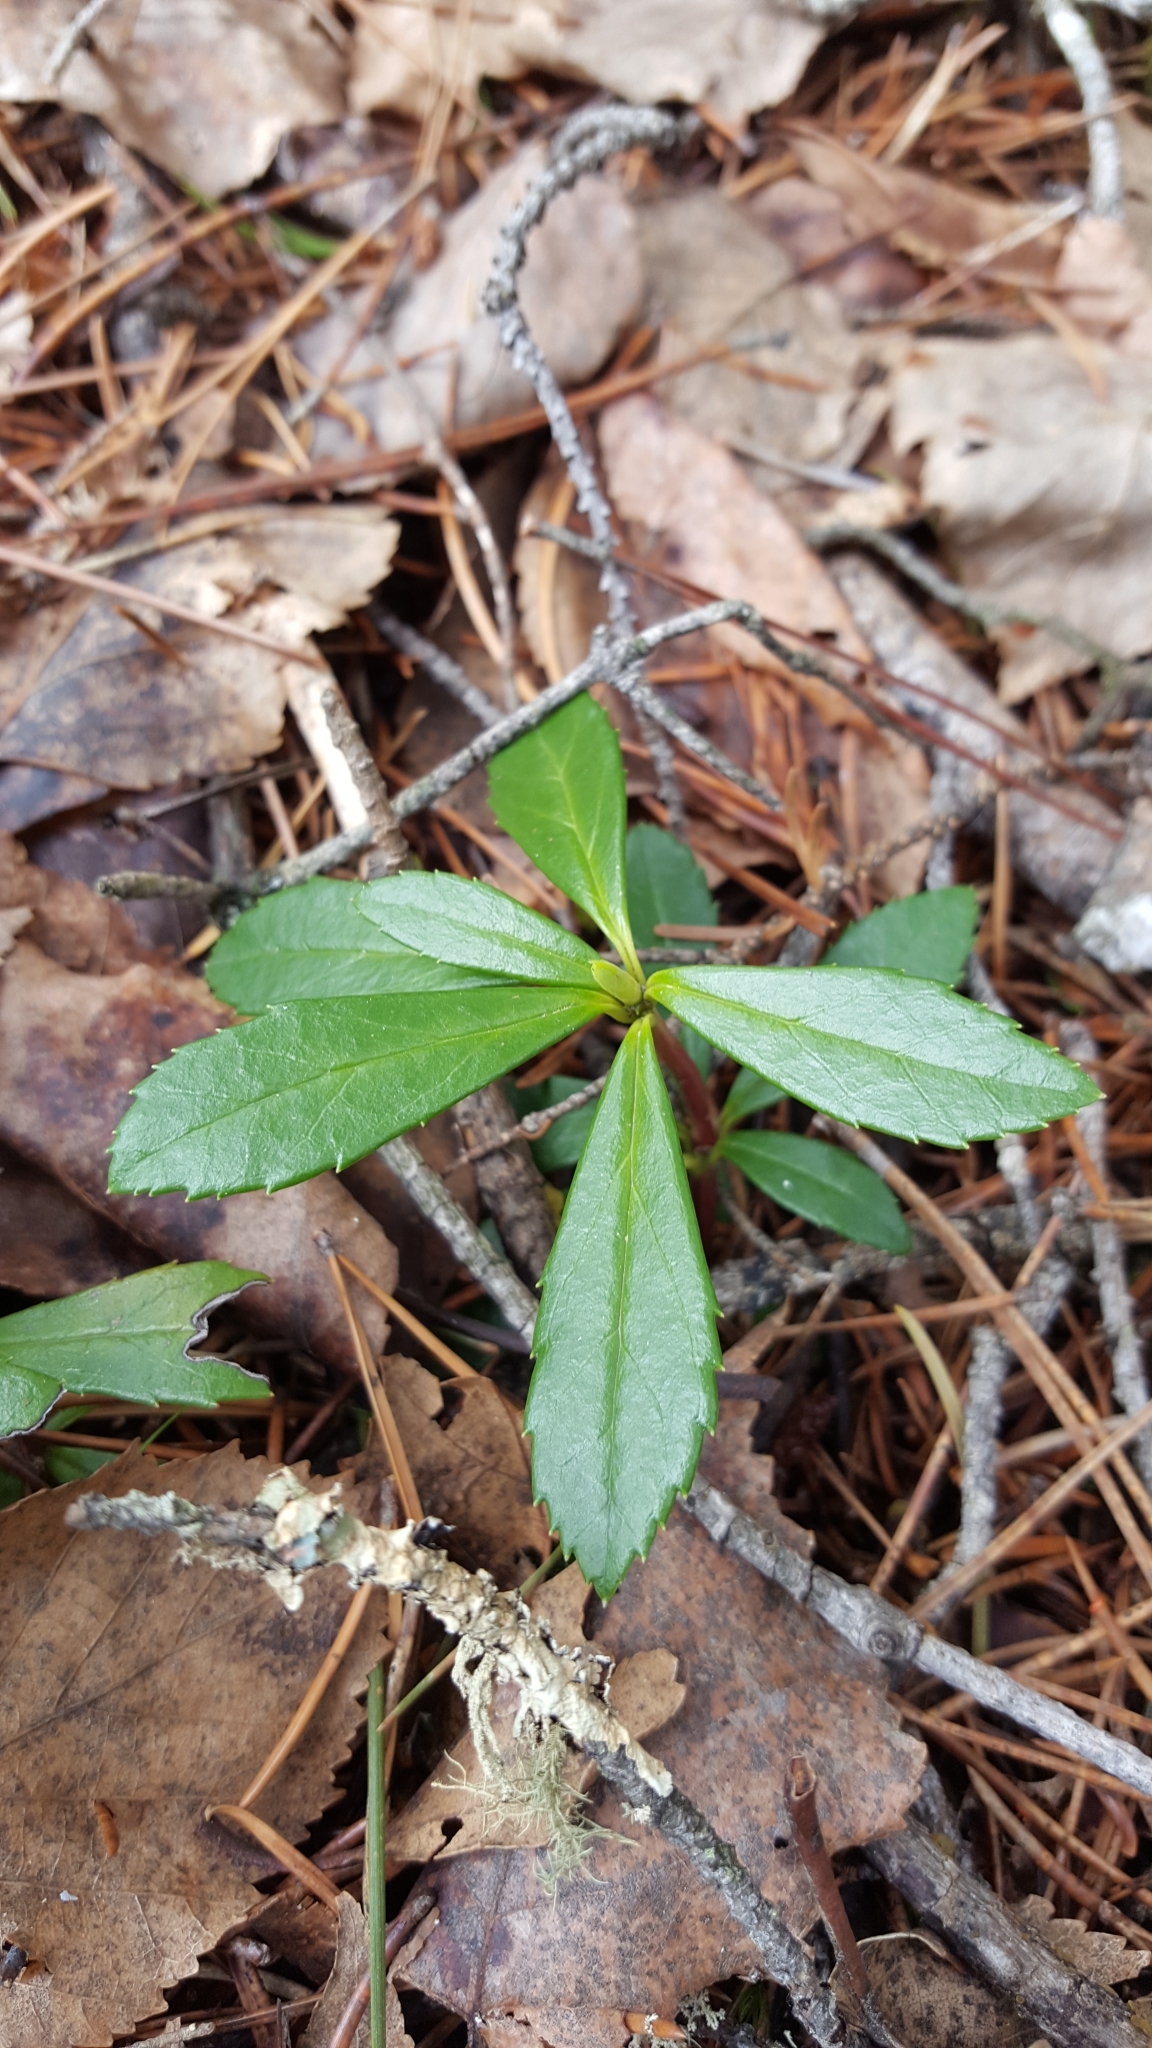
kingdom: Plantae
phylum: Tracheophyta
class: Magnoliopsida
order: Ericales
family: Ericaceae
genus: Chimaphila
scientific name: Chimaphila umbellata
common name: Pipsissewa
